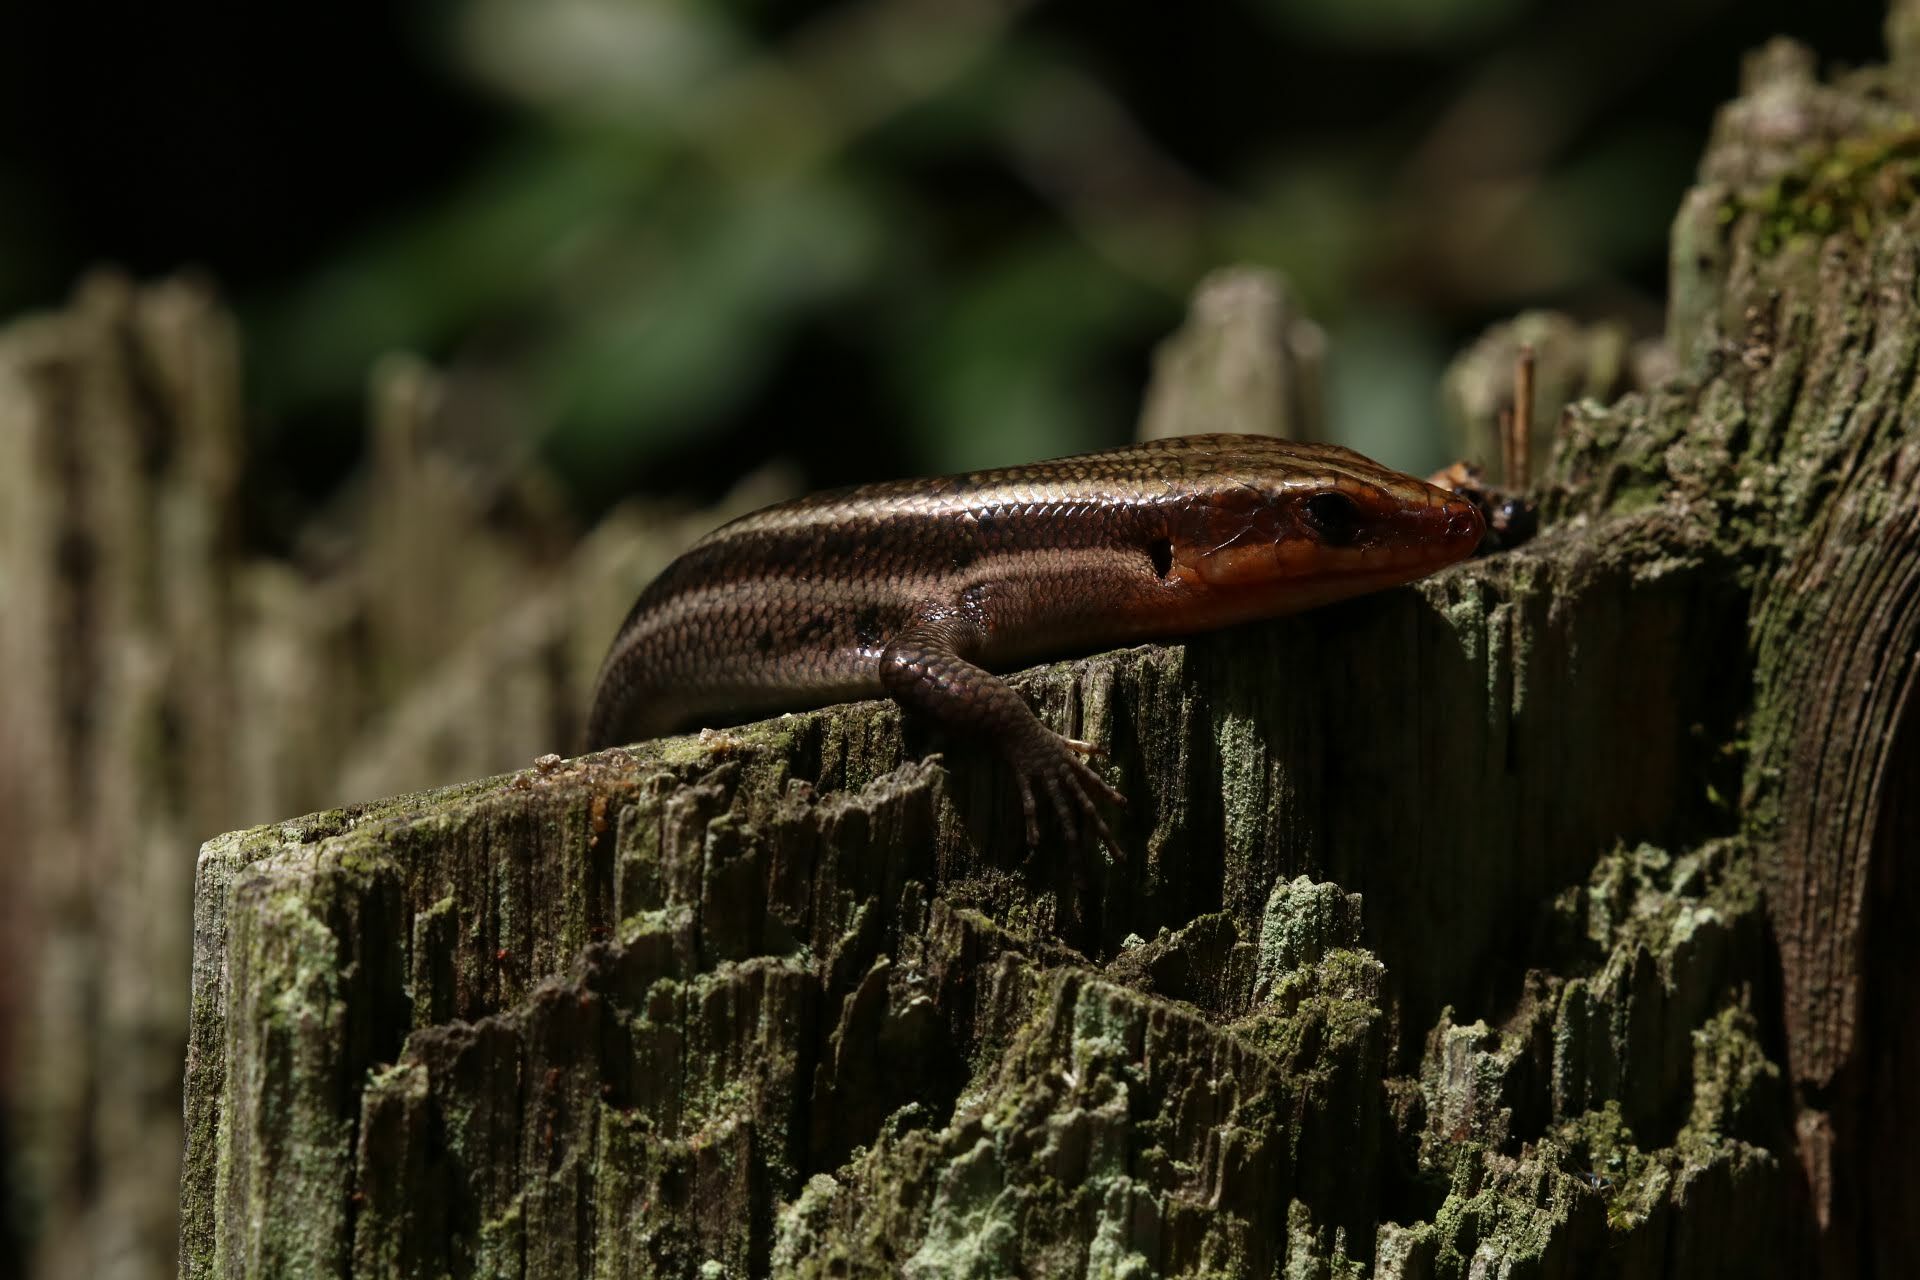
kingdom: Animalia
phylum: Chordata
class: Squamata
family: Scincidae
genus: Plestiodon
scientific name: Plestiodon fasciatus
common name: Five-lined skink
